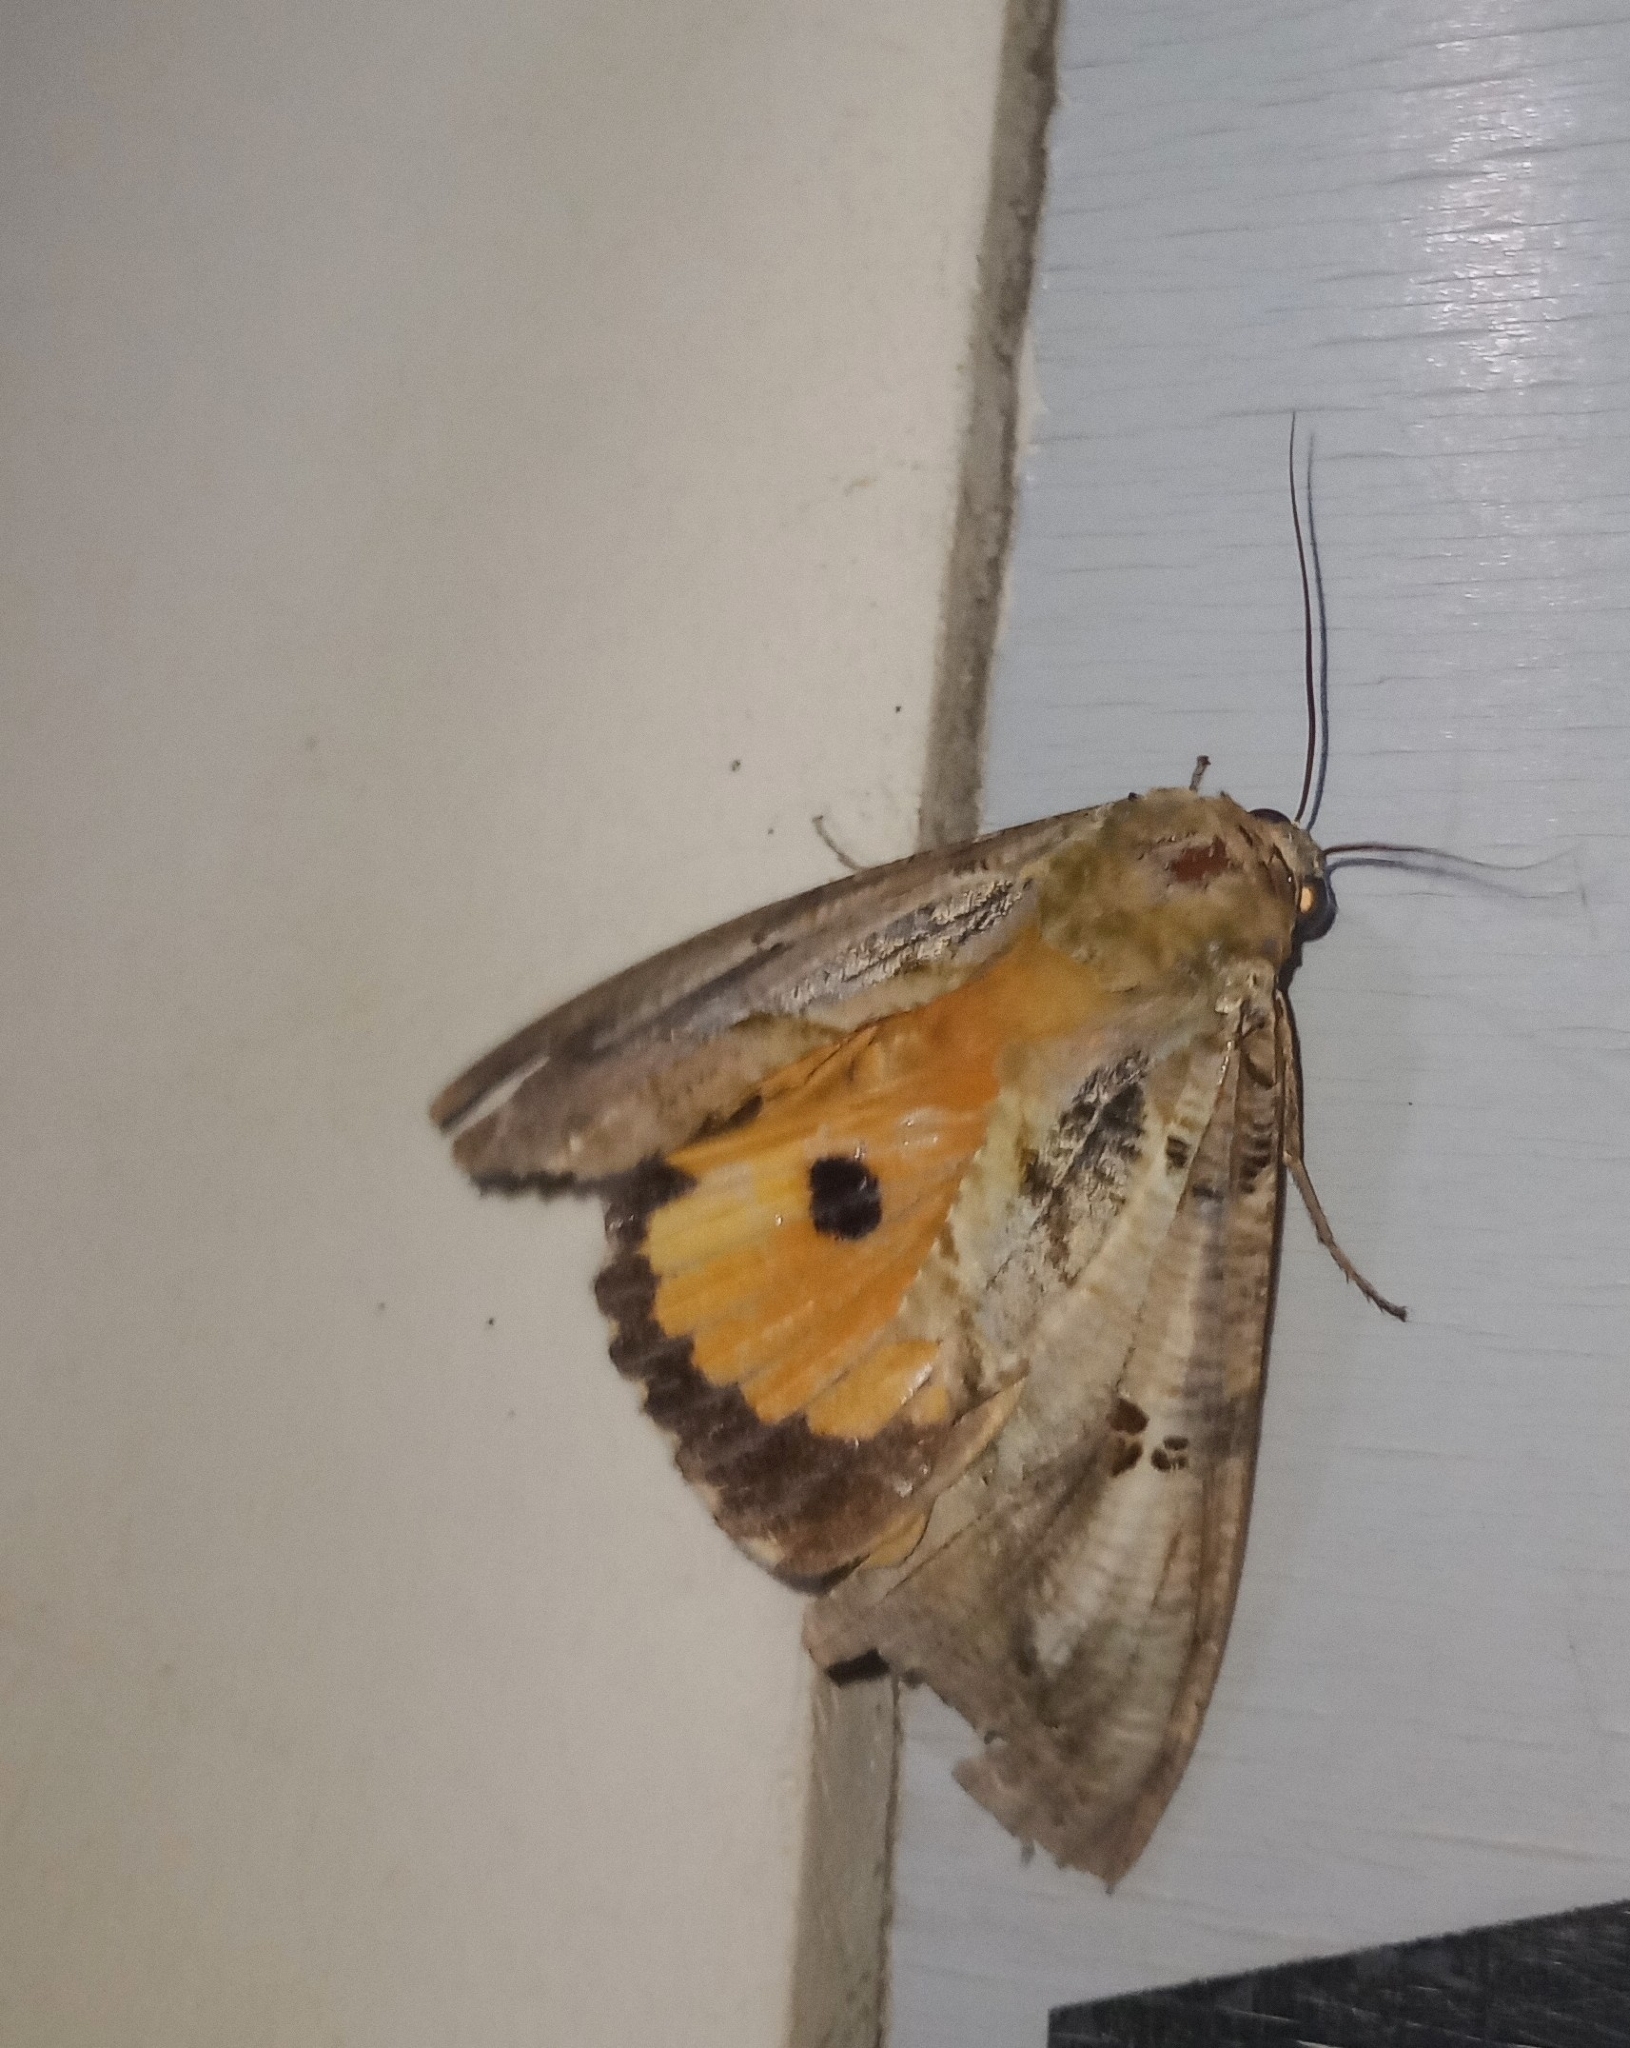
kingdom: Animalia
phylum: Arthropoda
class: Insecta
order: Lepidoptera
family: Erebidae
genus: Eudocima
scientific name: Eudocima materna
